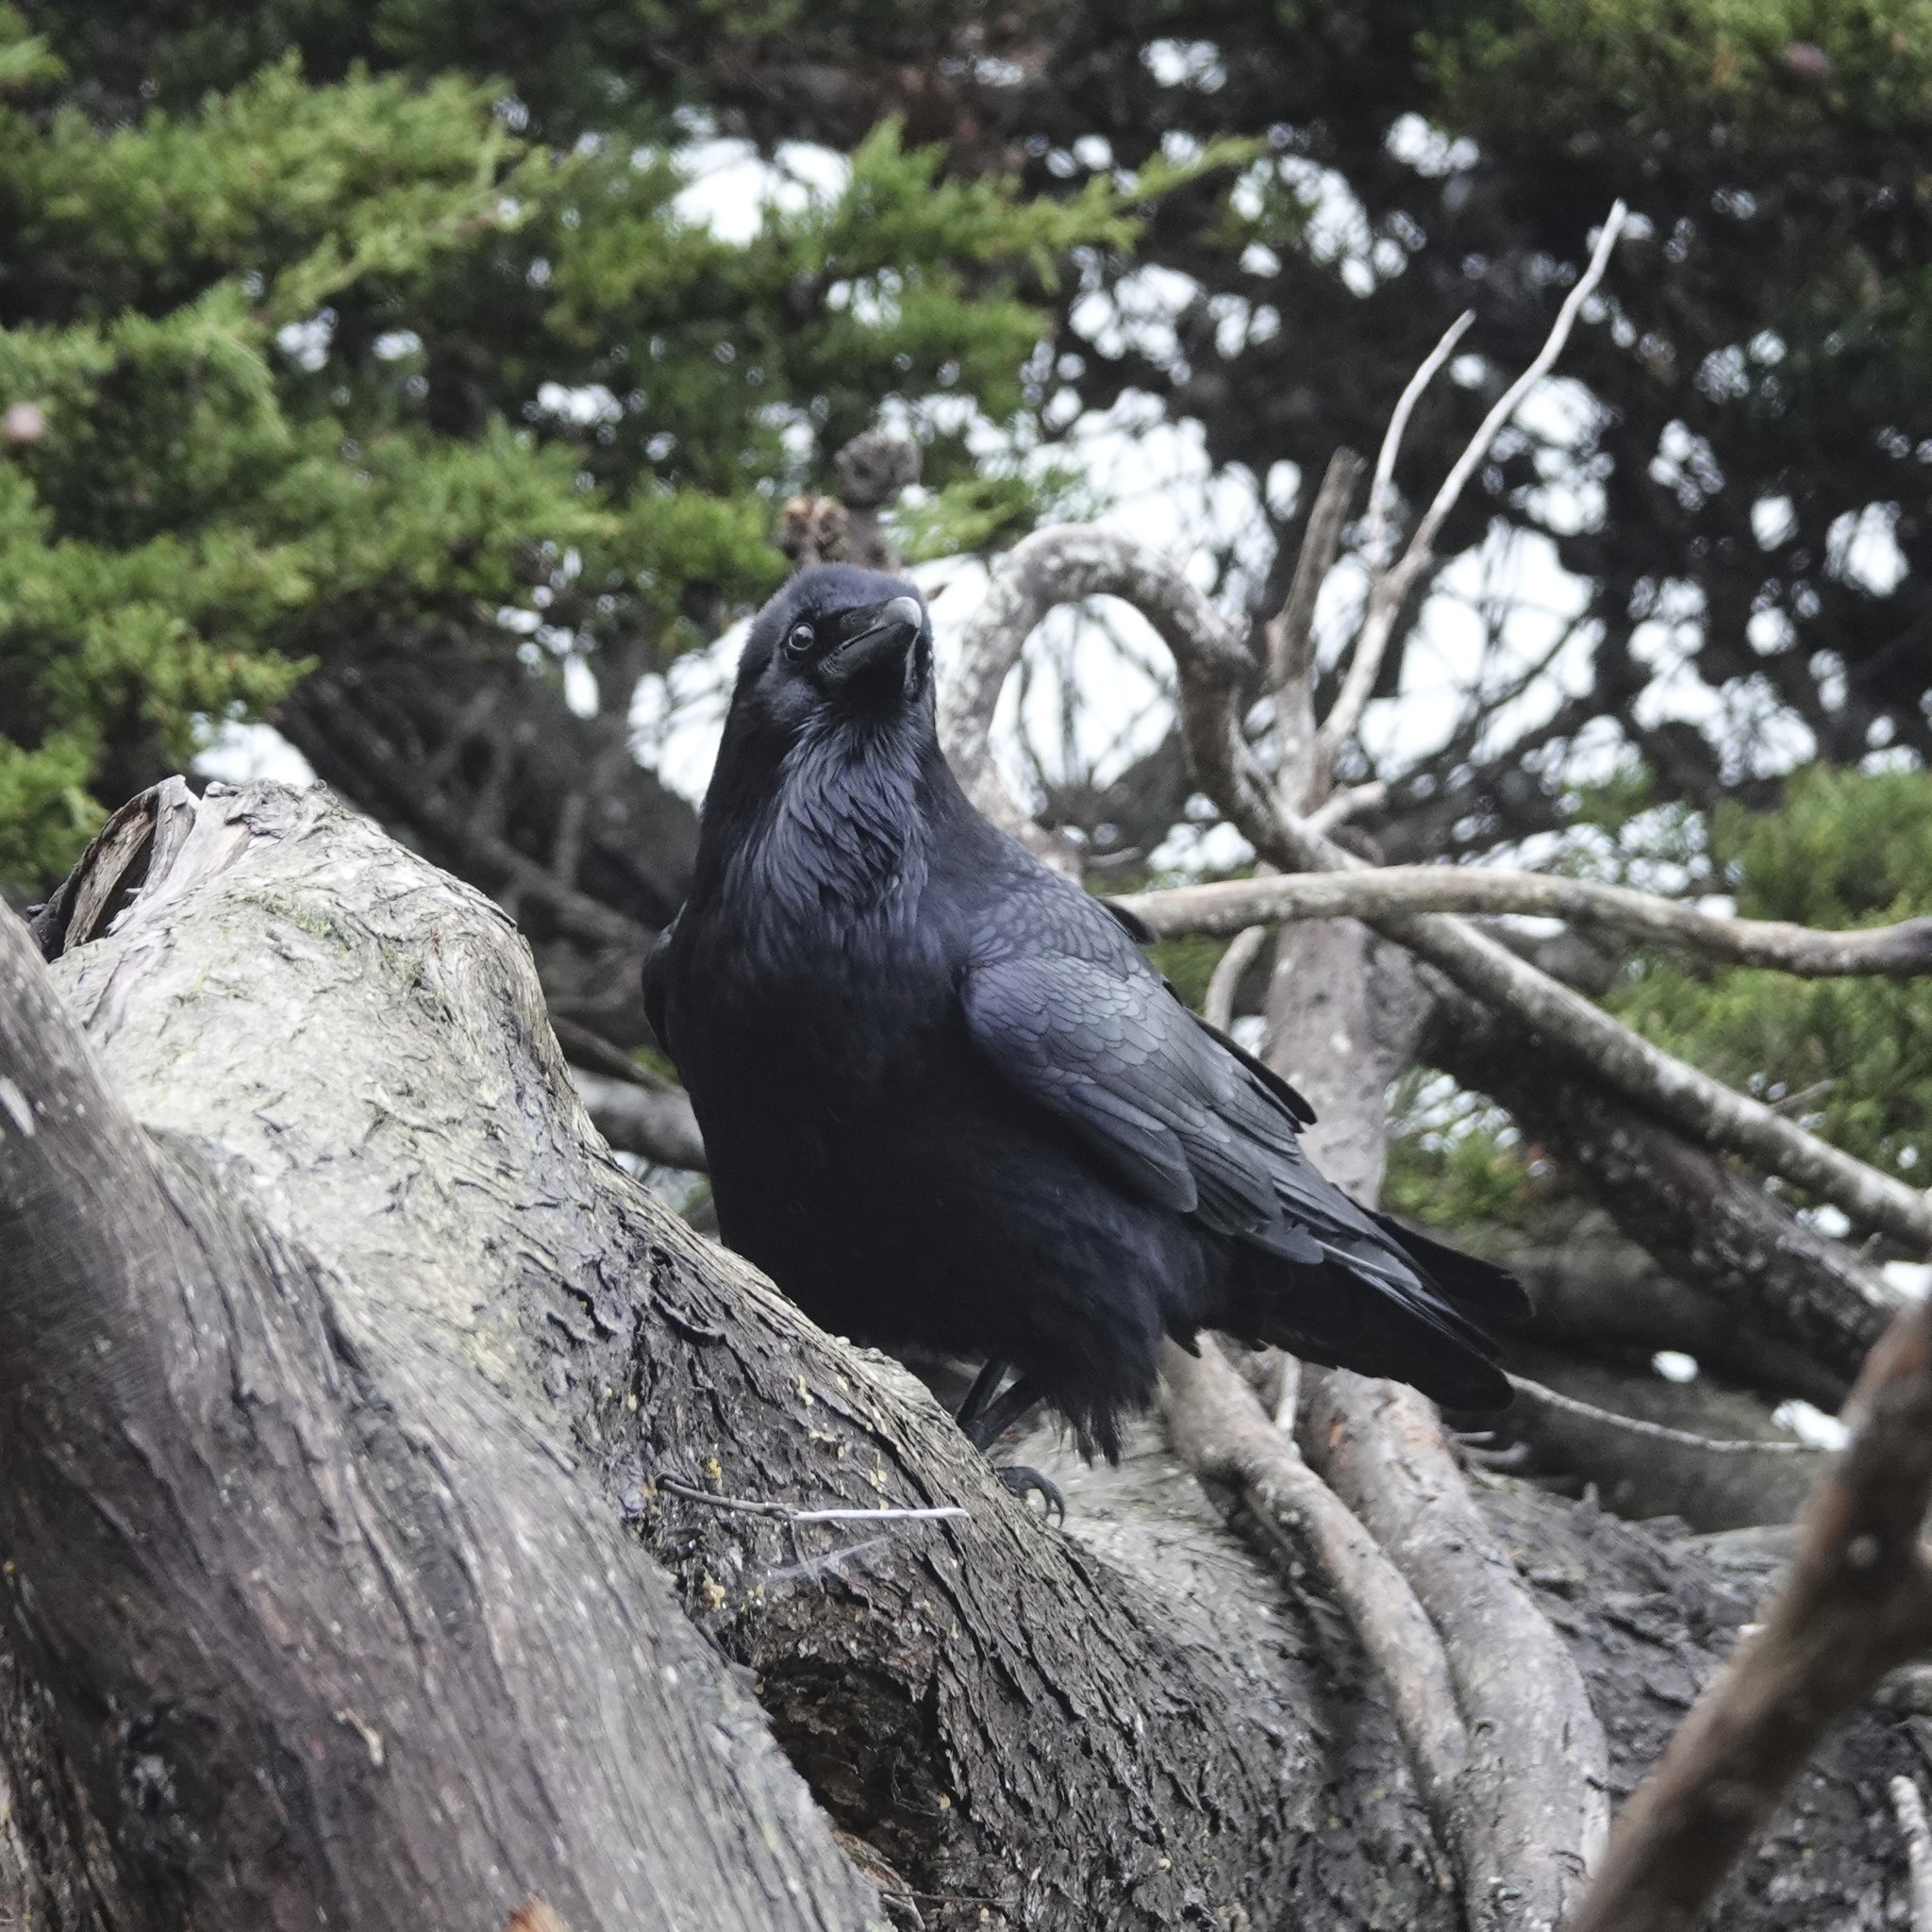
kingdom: Animalia
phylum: Chordata
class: Aves
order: Passeriformes
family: Corvidae
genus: Corvus
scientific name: Corvus corax
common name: Common raven
